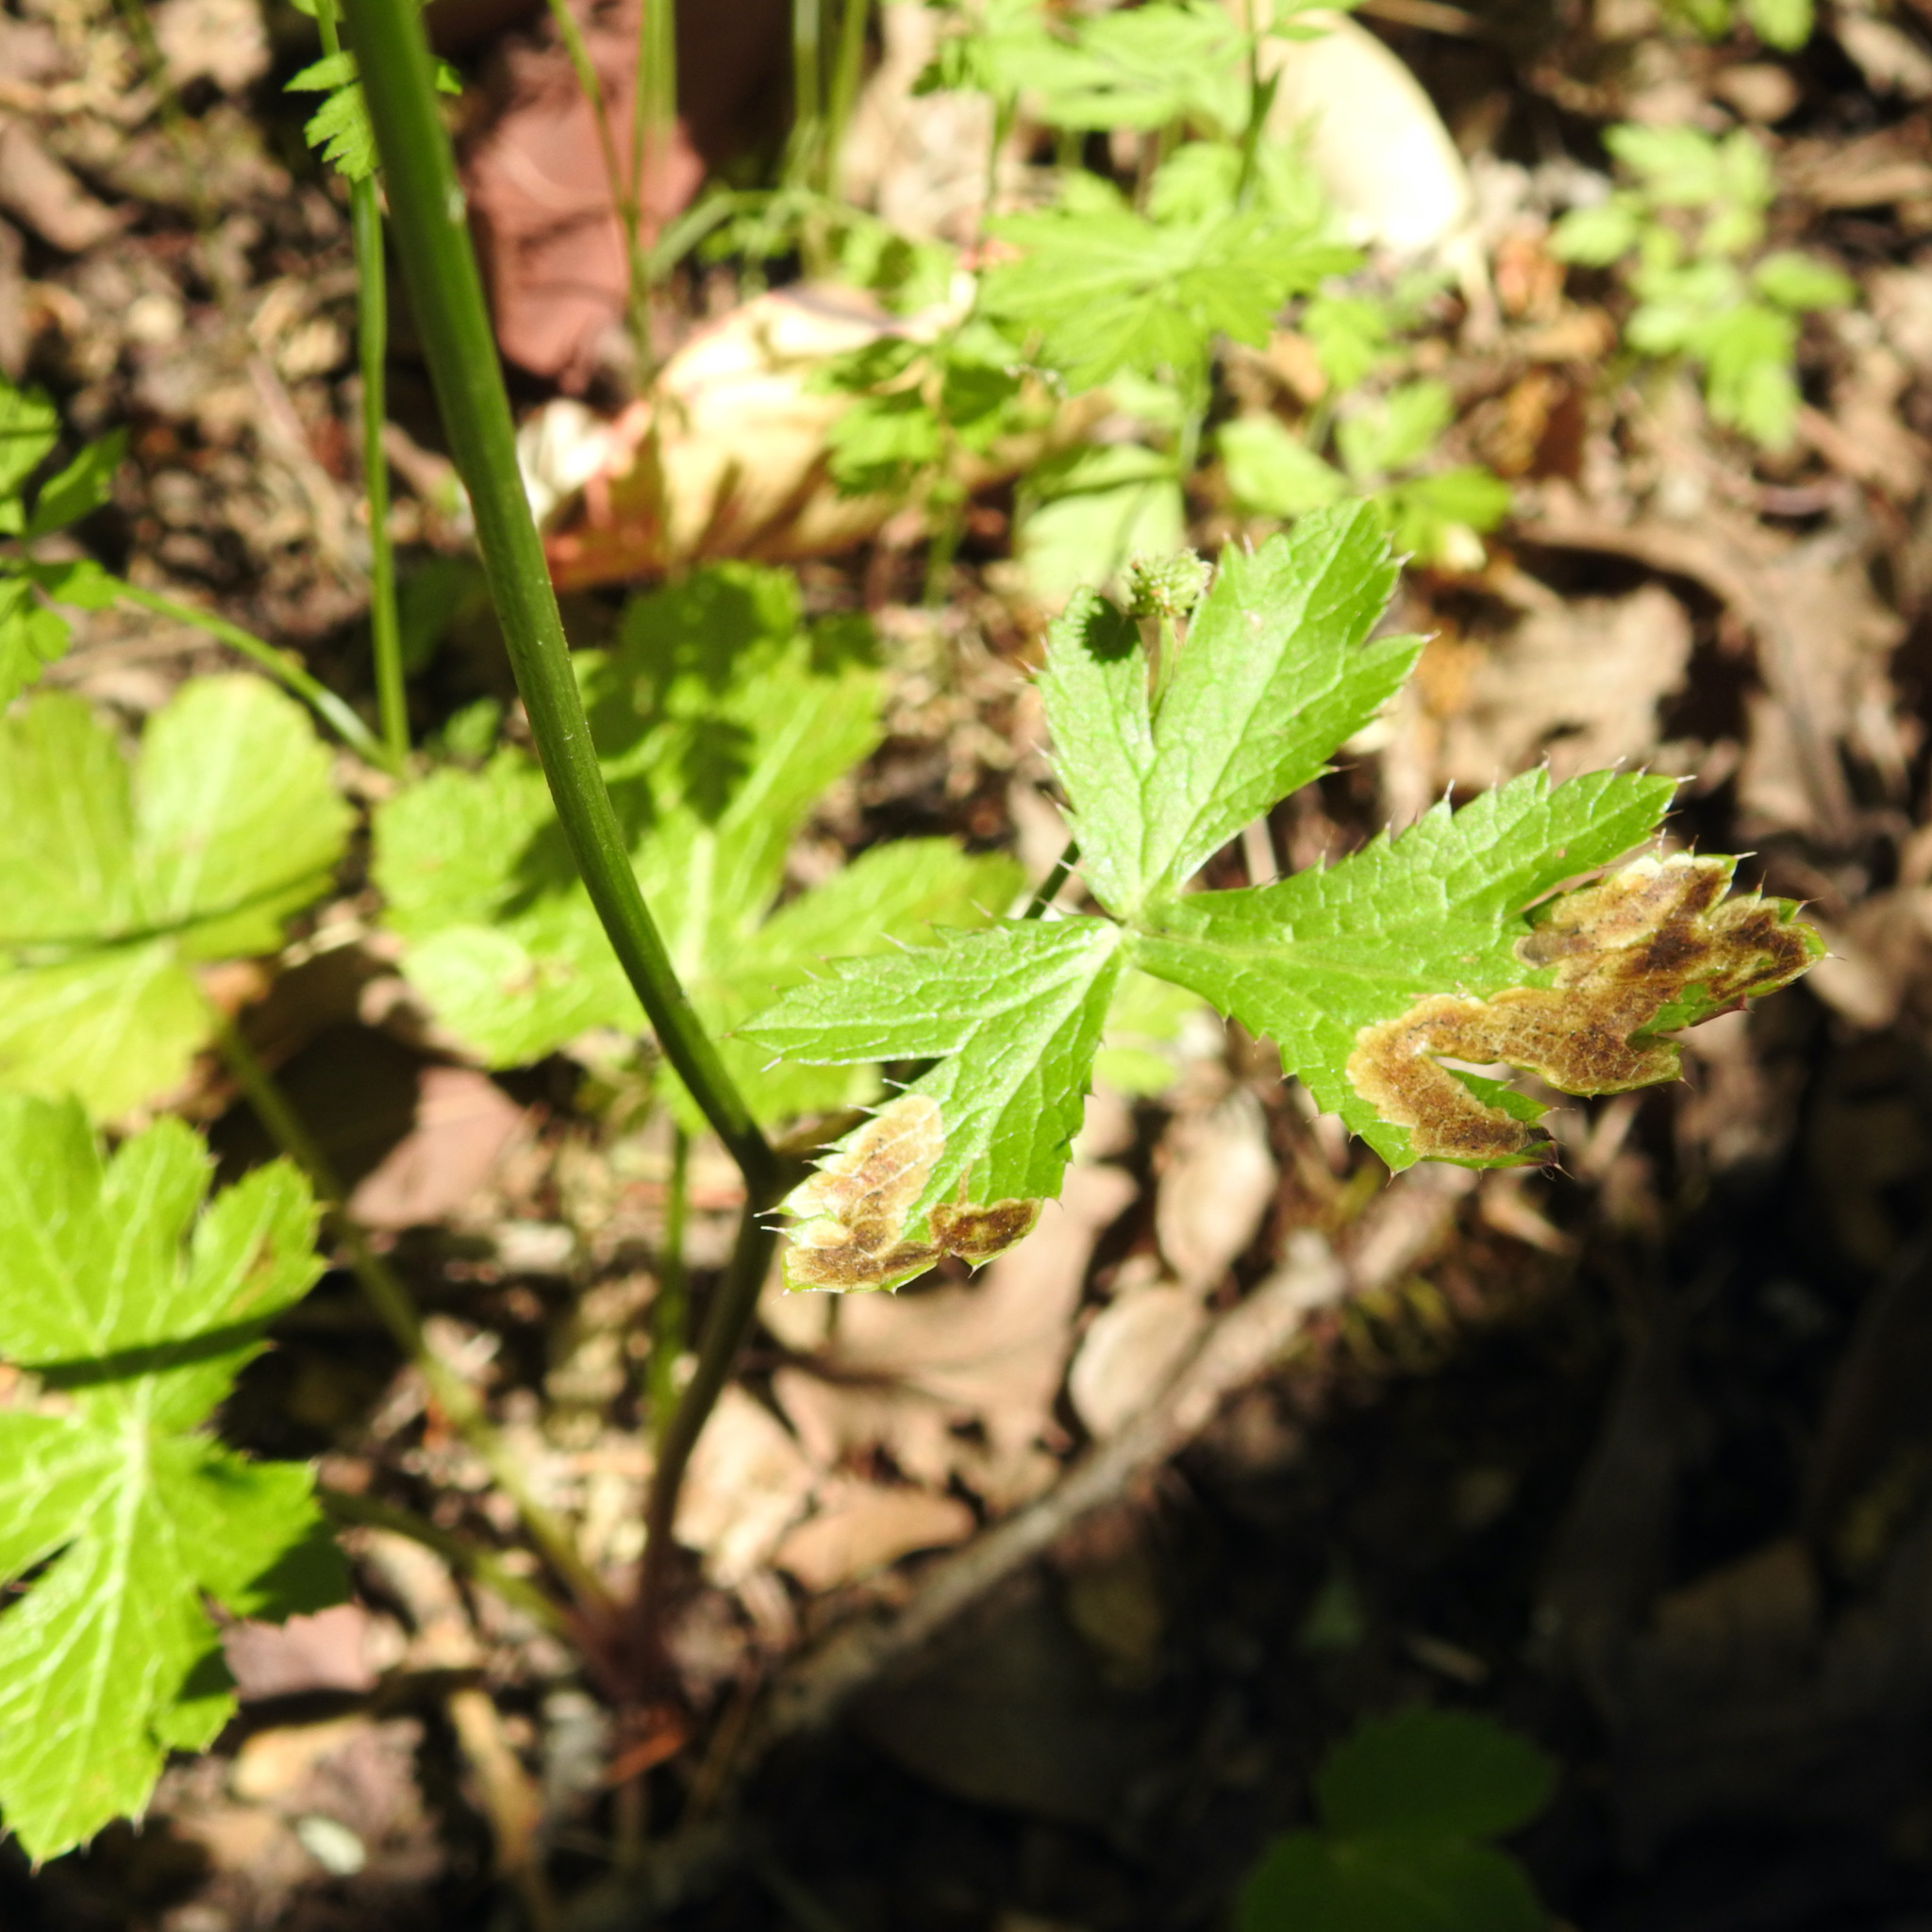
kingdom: Animalia
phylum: Arthropoda
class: Insecta
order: Diptera
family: Agromyzidae
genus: Phytomyza
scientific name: Phytomyza saniculae
